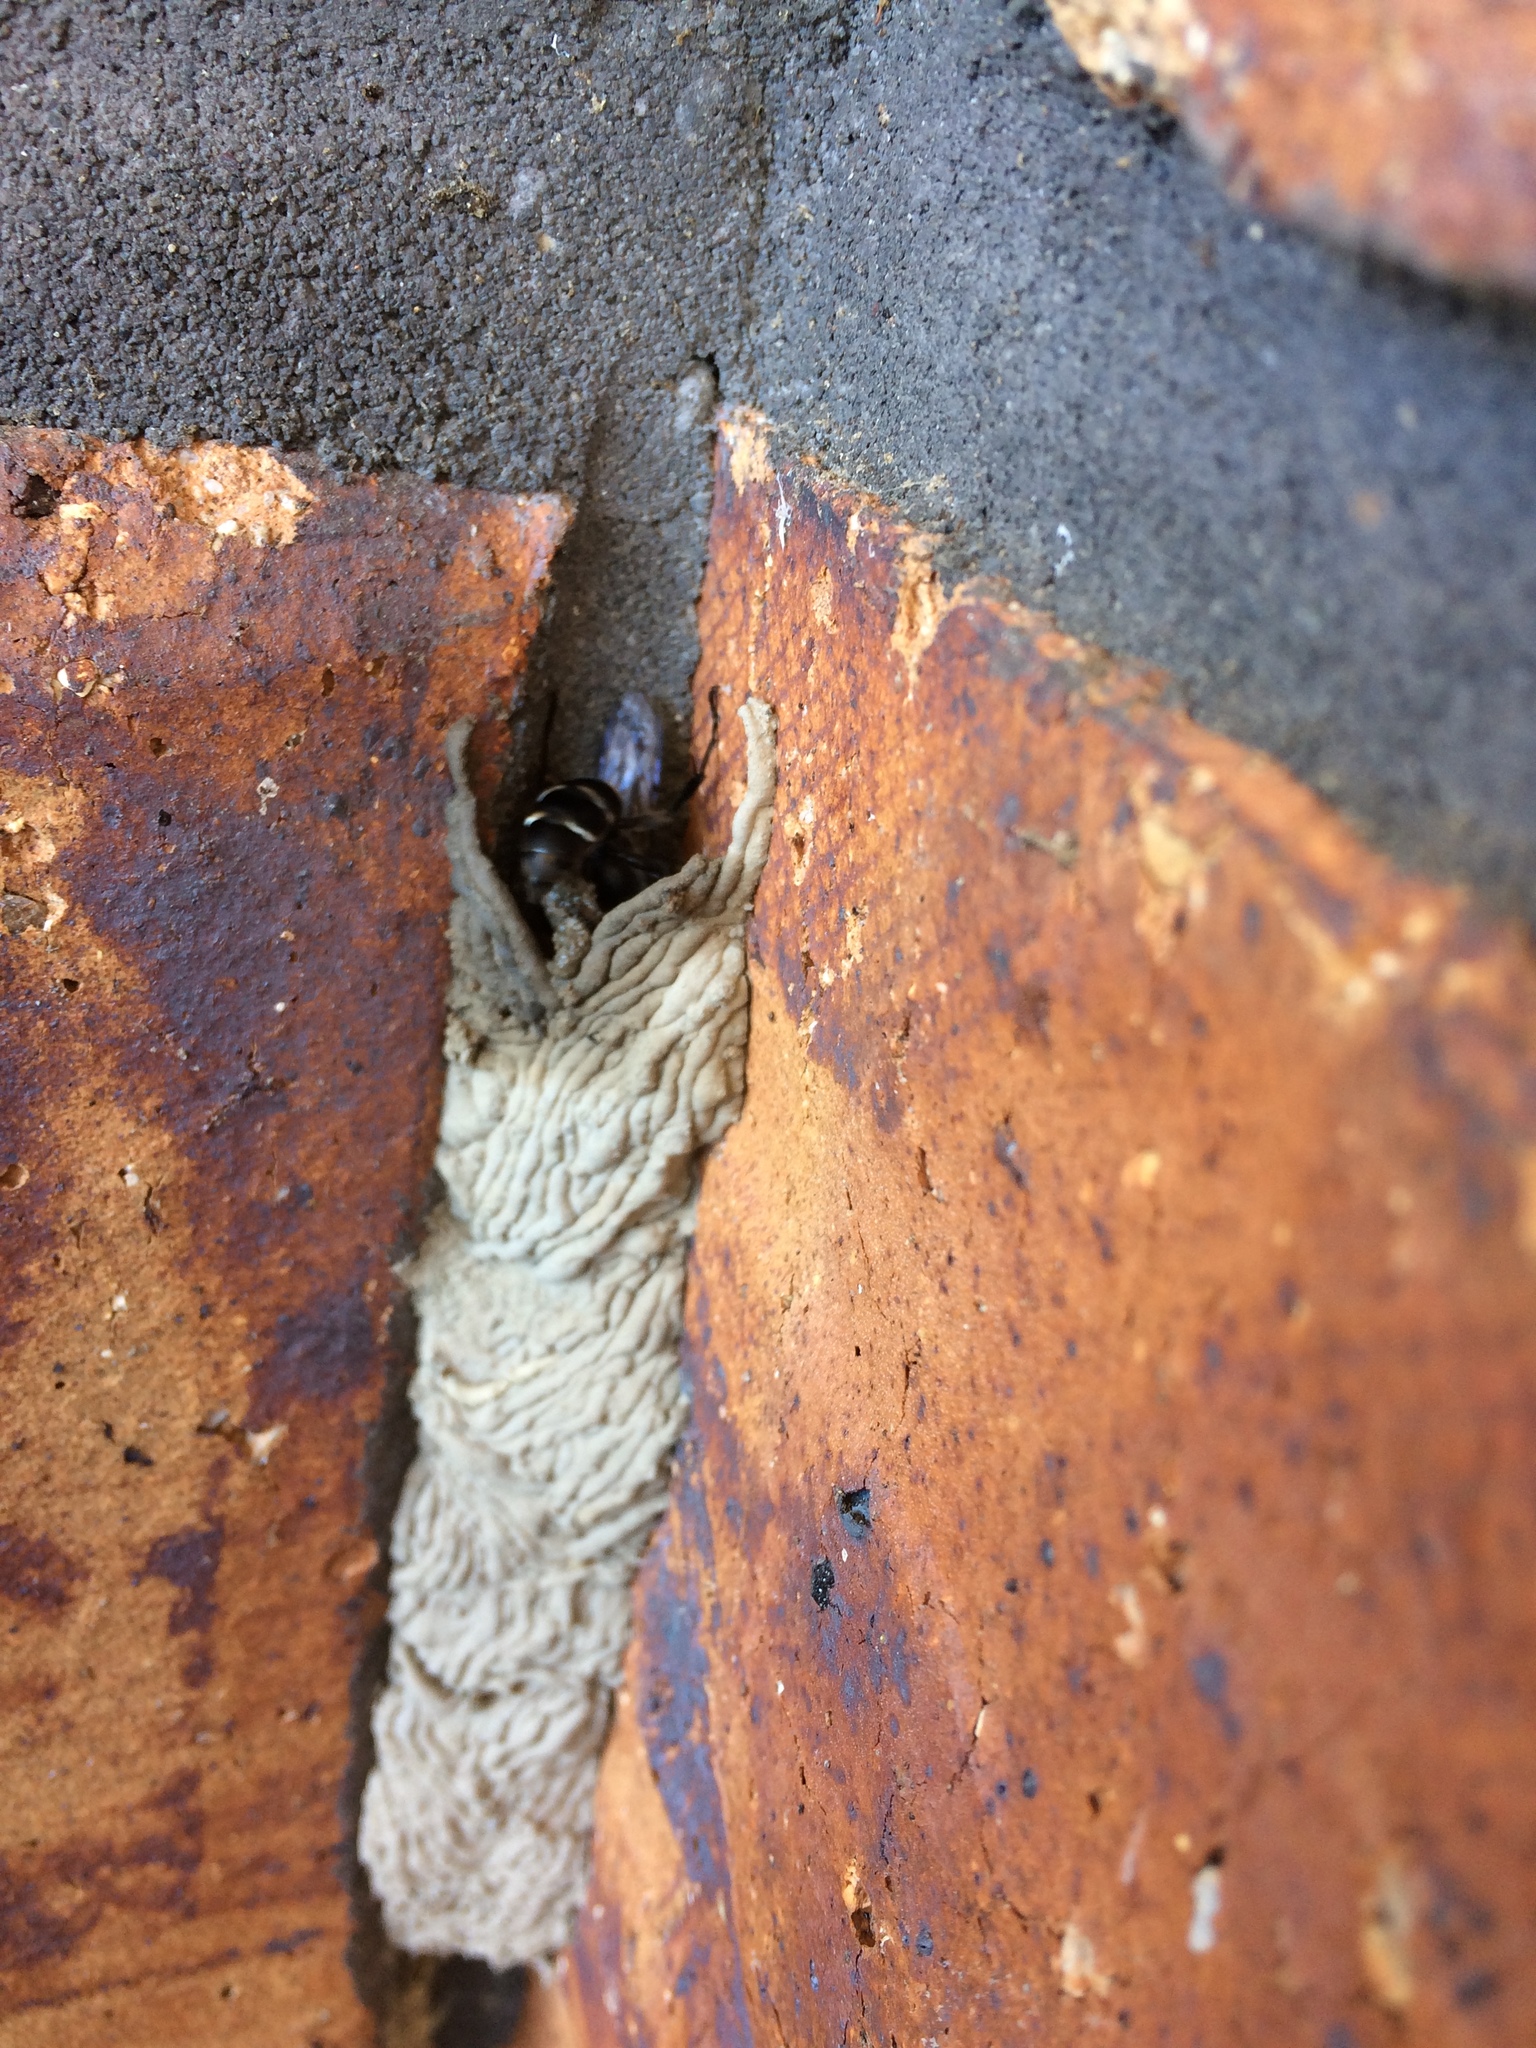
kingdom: Animalia
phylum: Arthropoda
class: Insecta
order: Hymenoptera
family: Crabronidae
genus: Pison
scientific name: Pison spinolae
